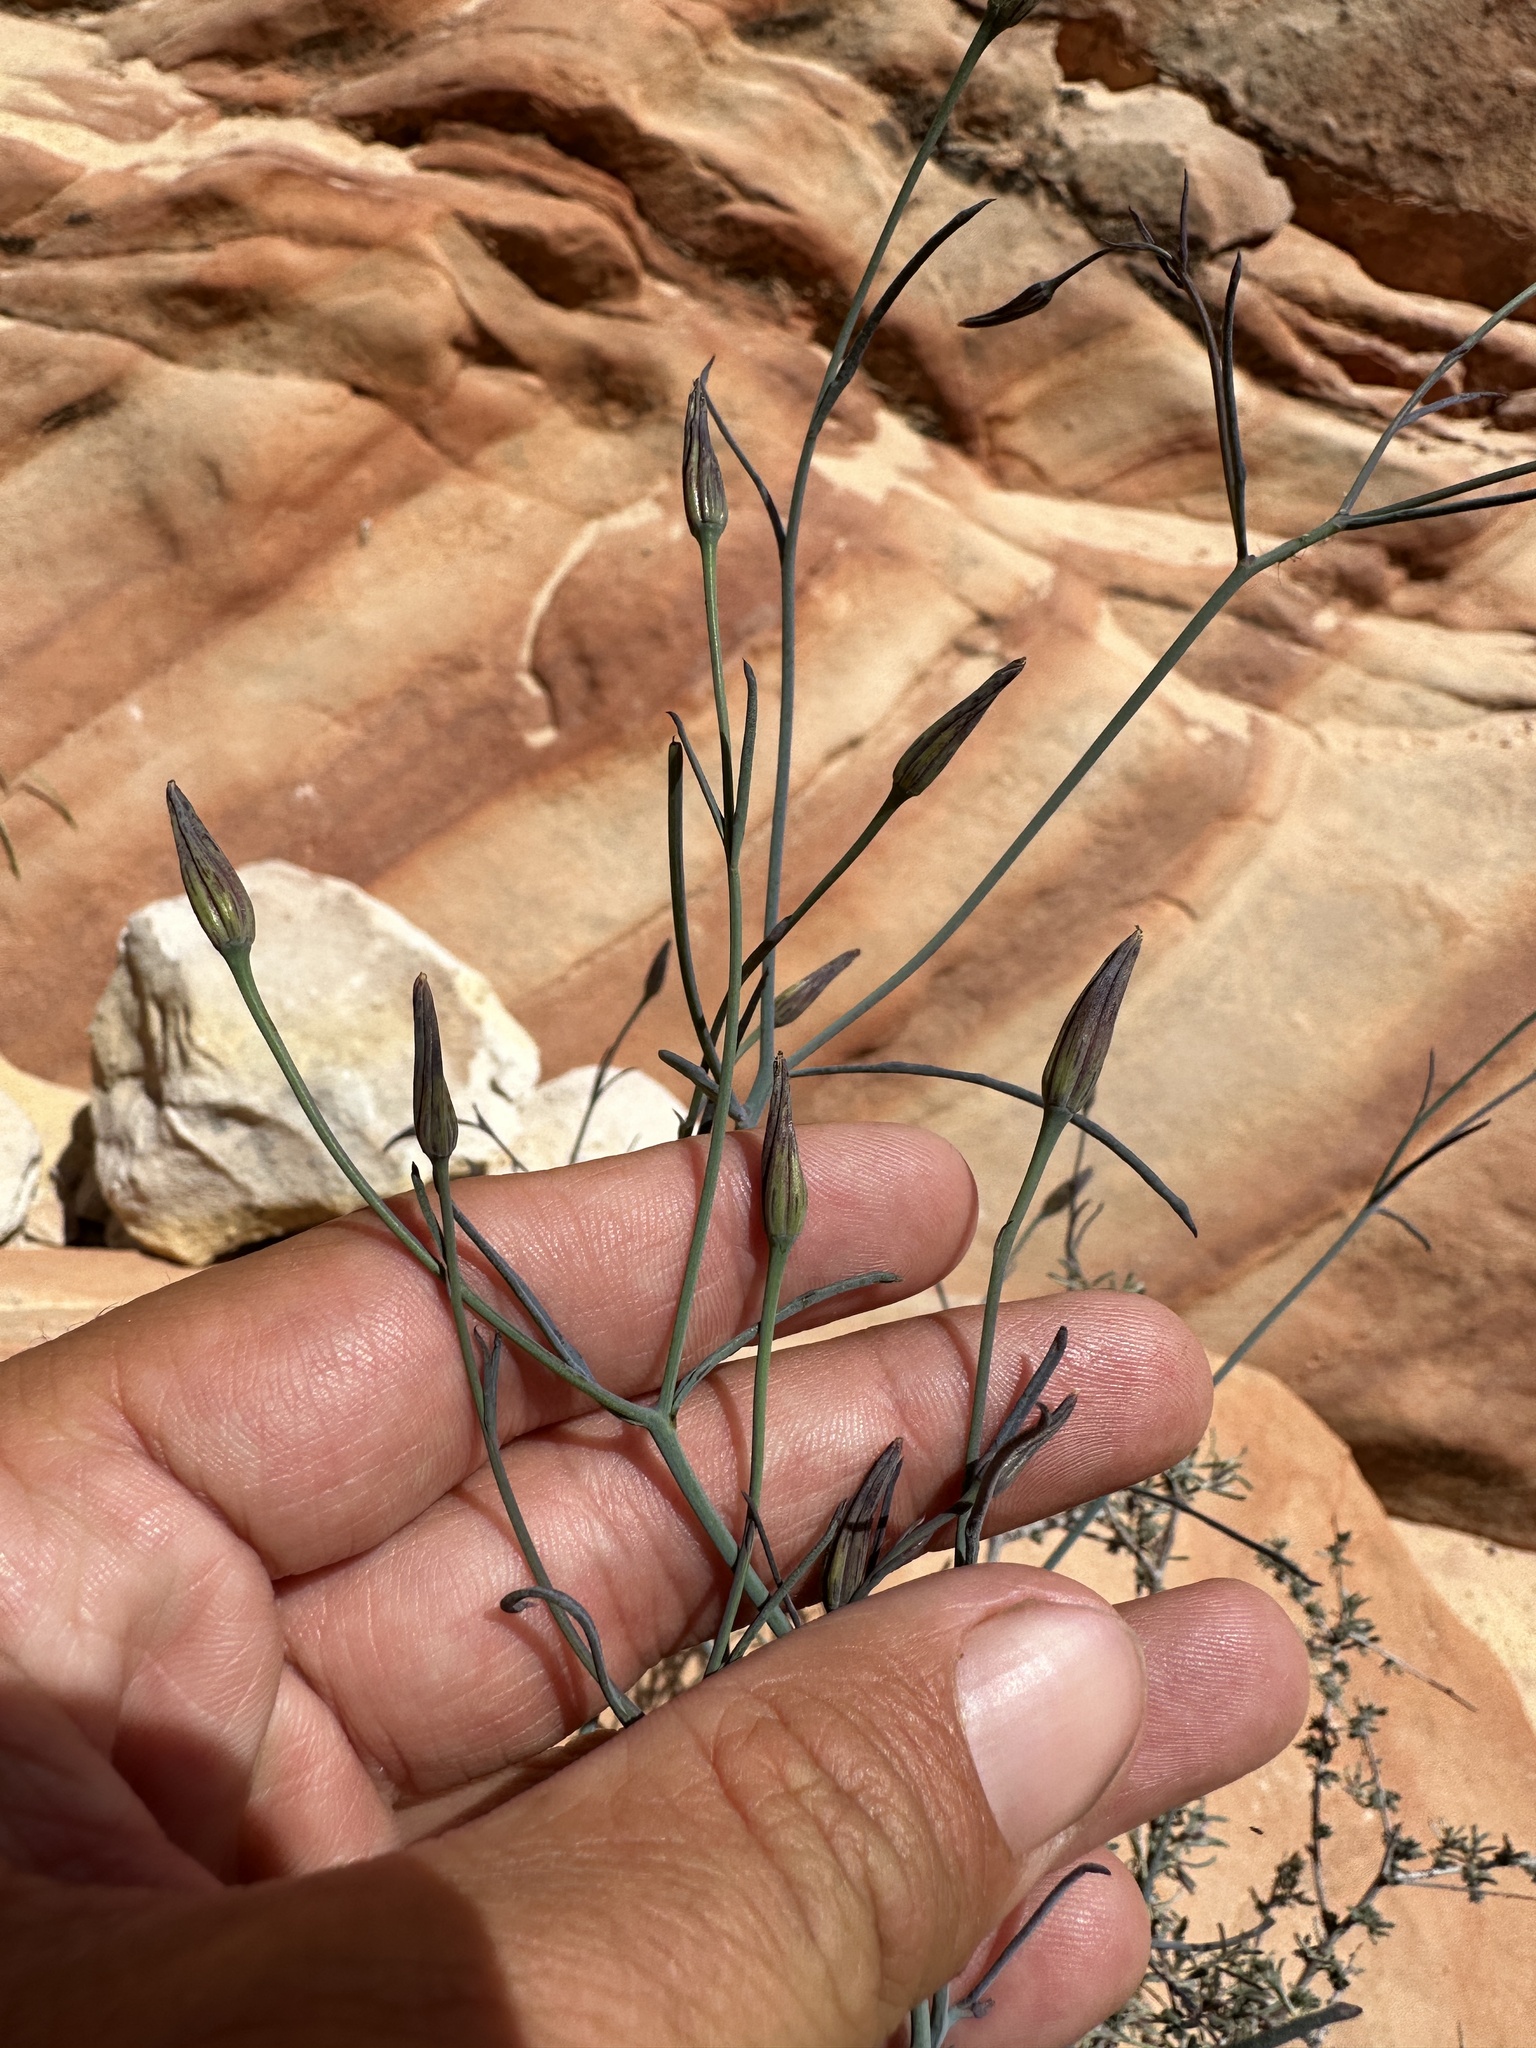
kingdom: Plantae
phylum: Tracheophyta
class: Magnoliopsida
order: Asterales
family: Asteraceae
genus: Porophyllum
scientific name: Porophyllum gracile
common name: Odora
